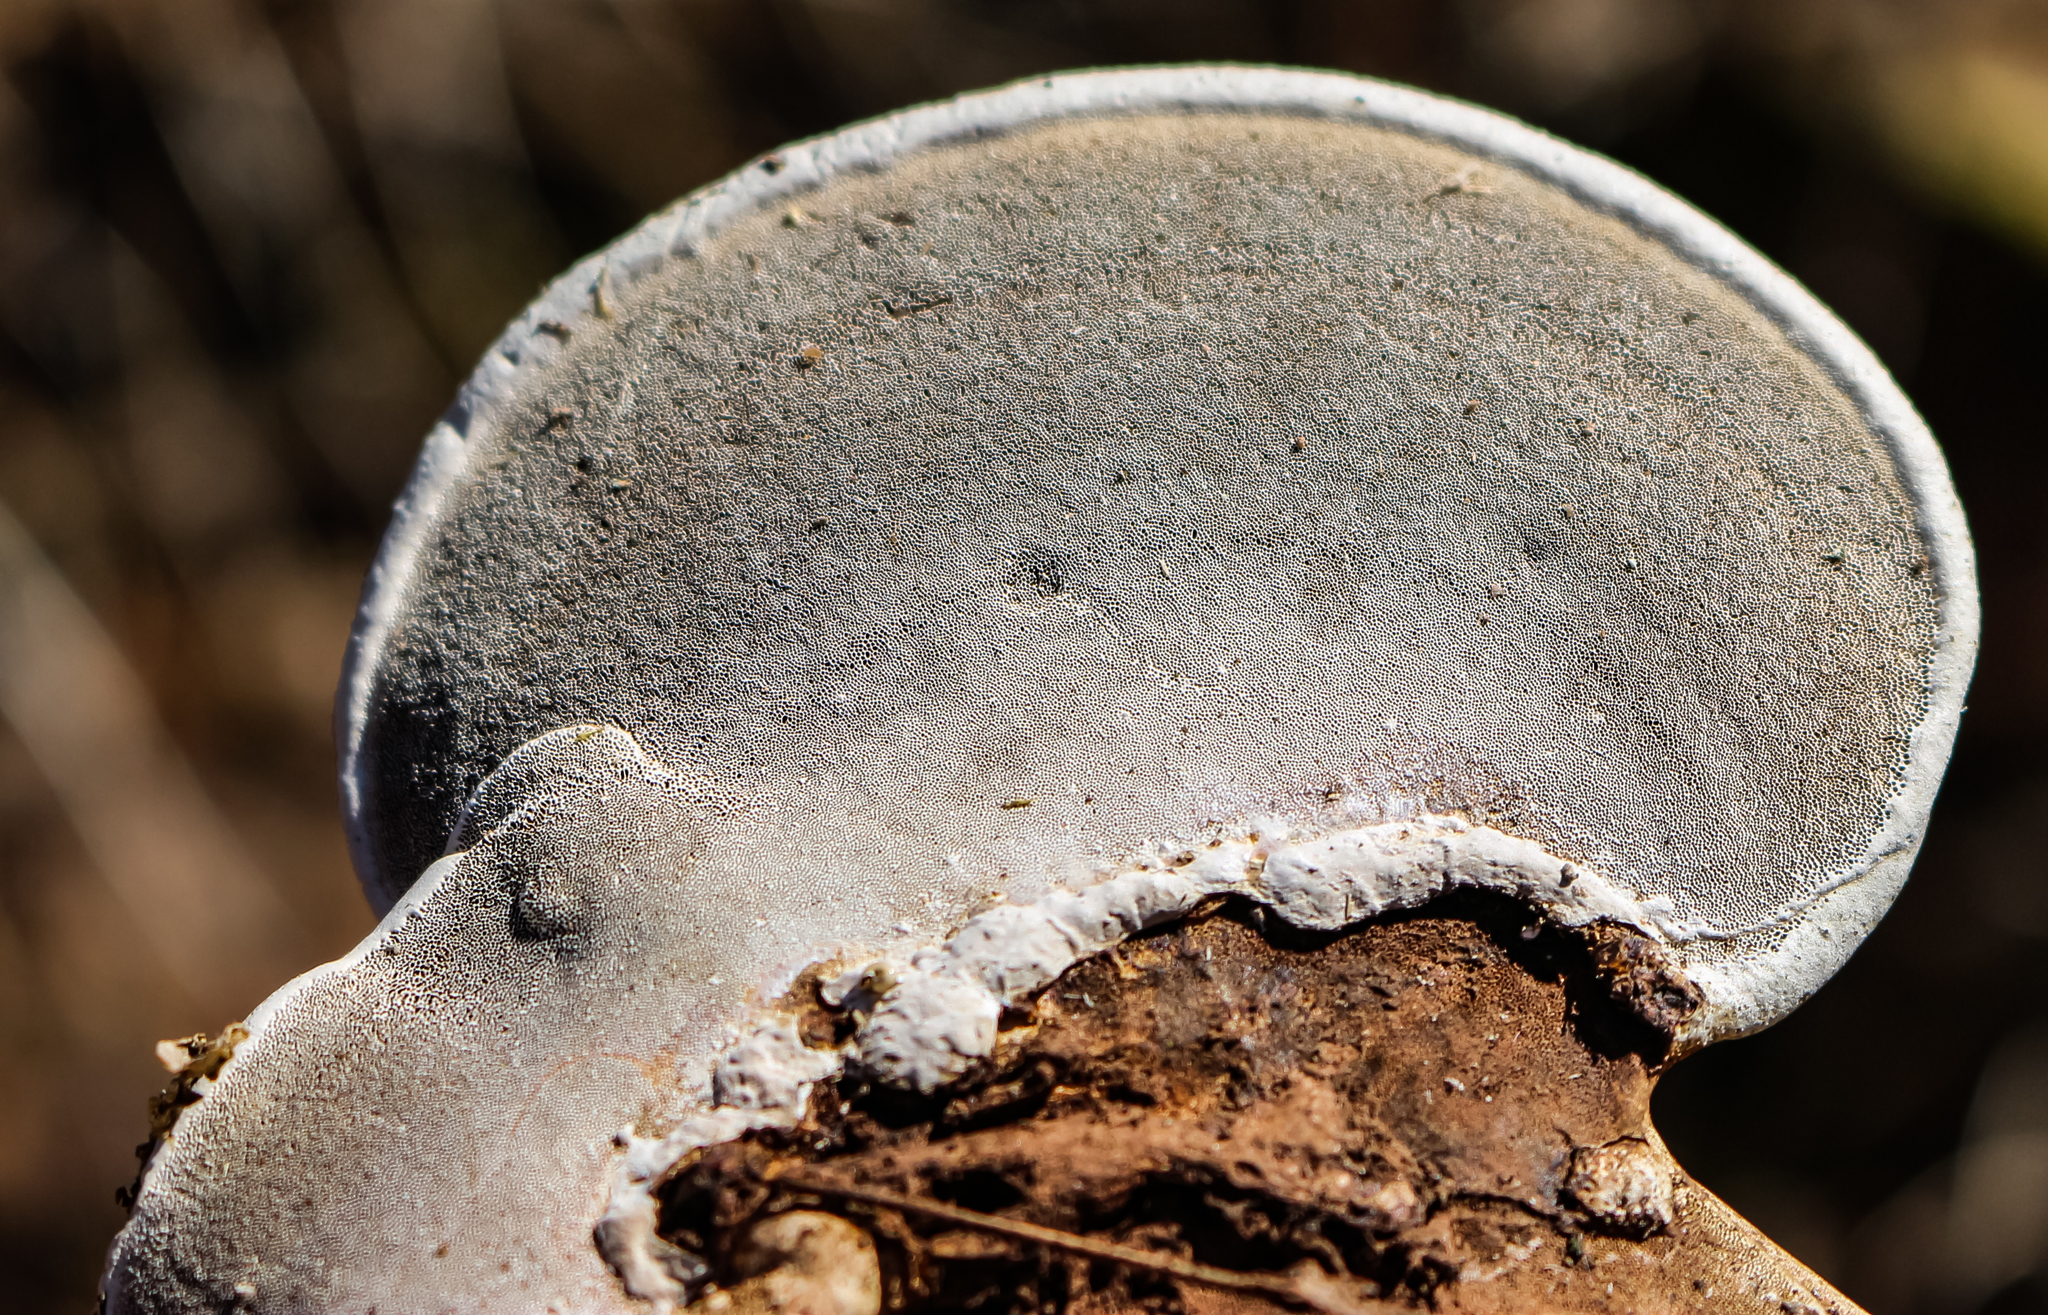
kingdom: Fungi
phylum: Basidiomycota
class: Agaricomycetes
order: Polyporales
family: Polyporaceae
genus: Ganoderma
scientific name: Ganoderma applanatum
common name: Artist's bracket
